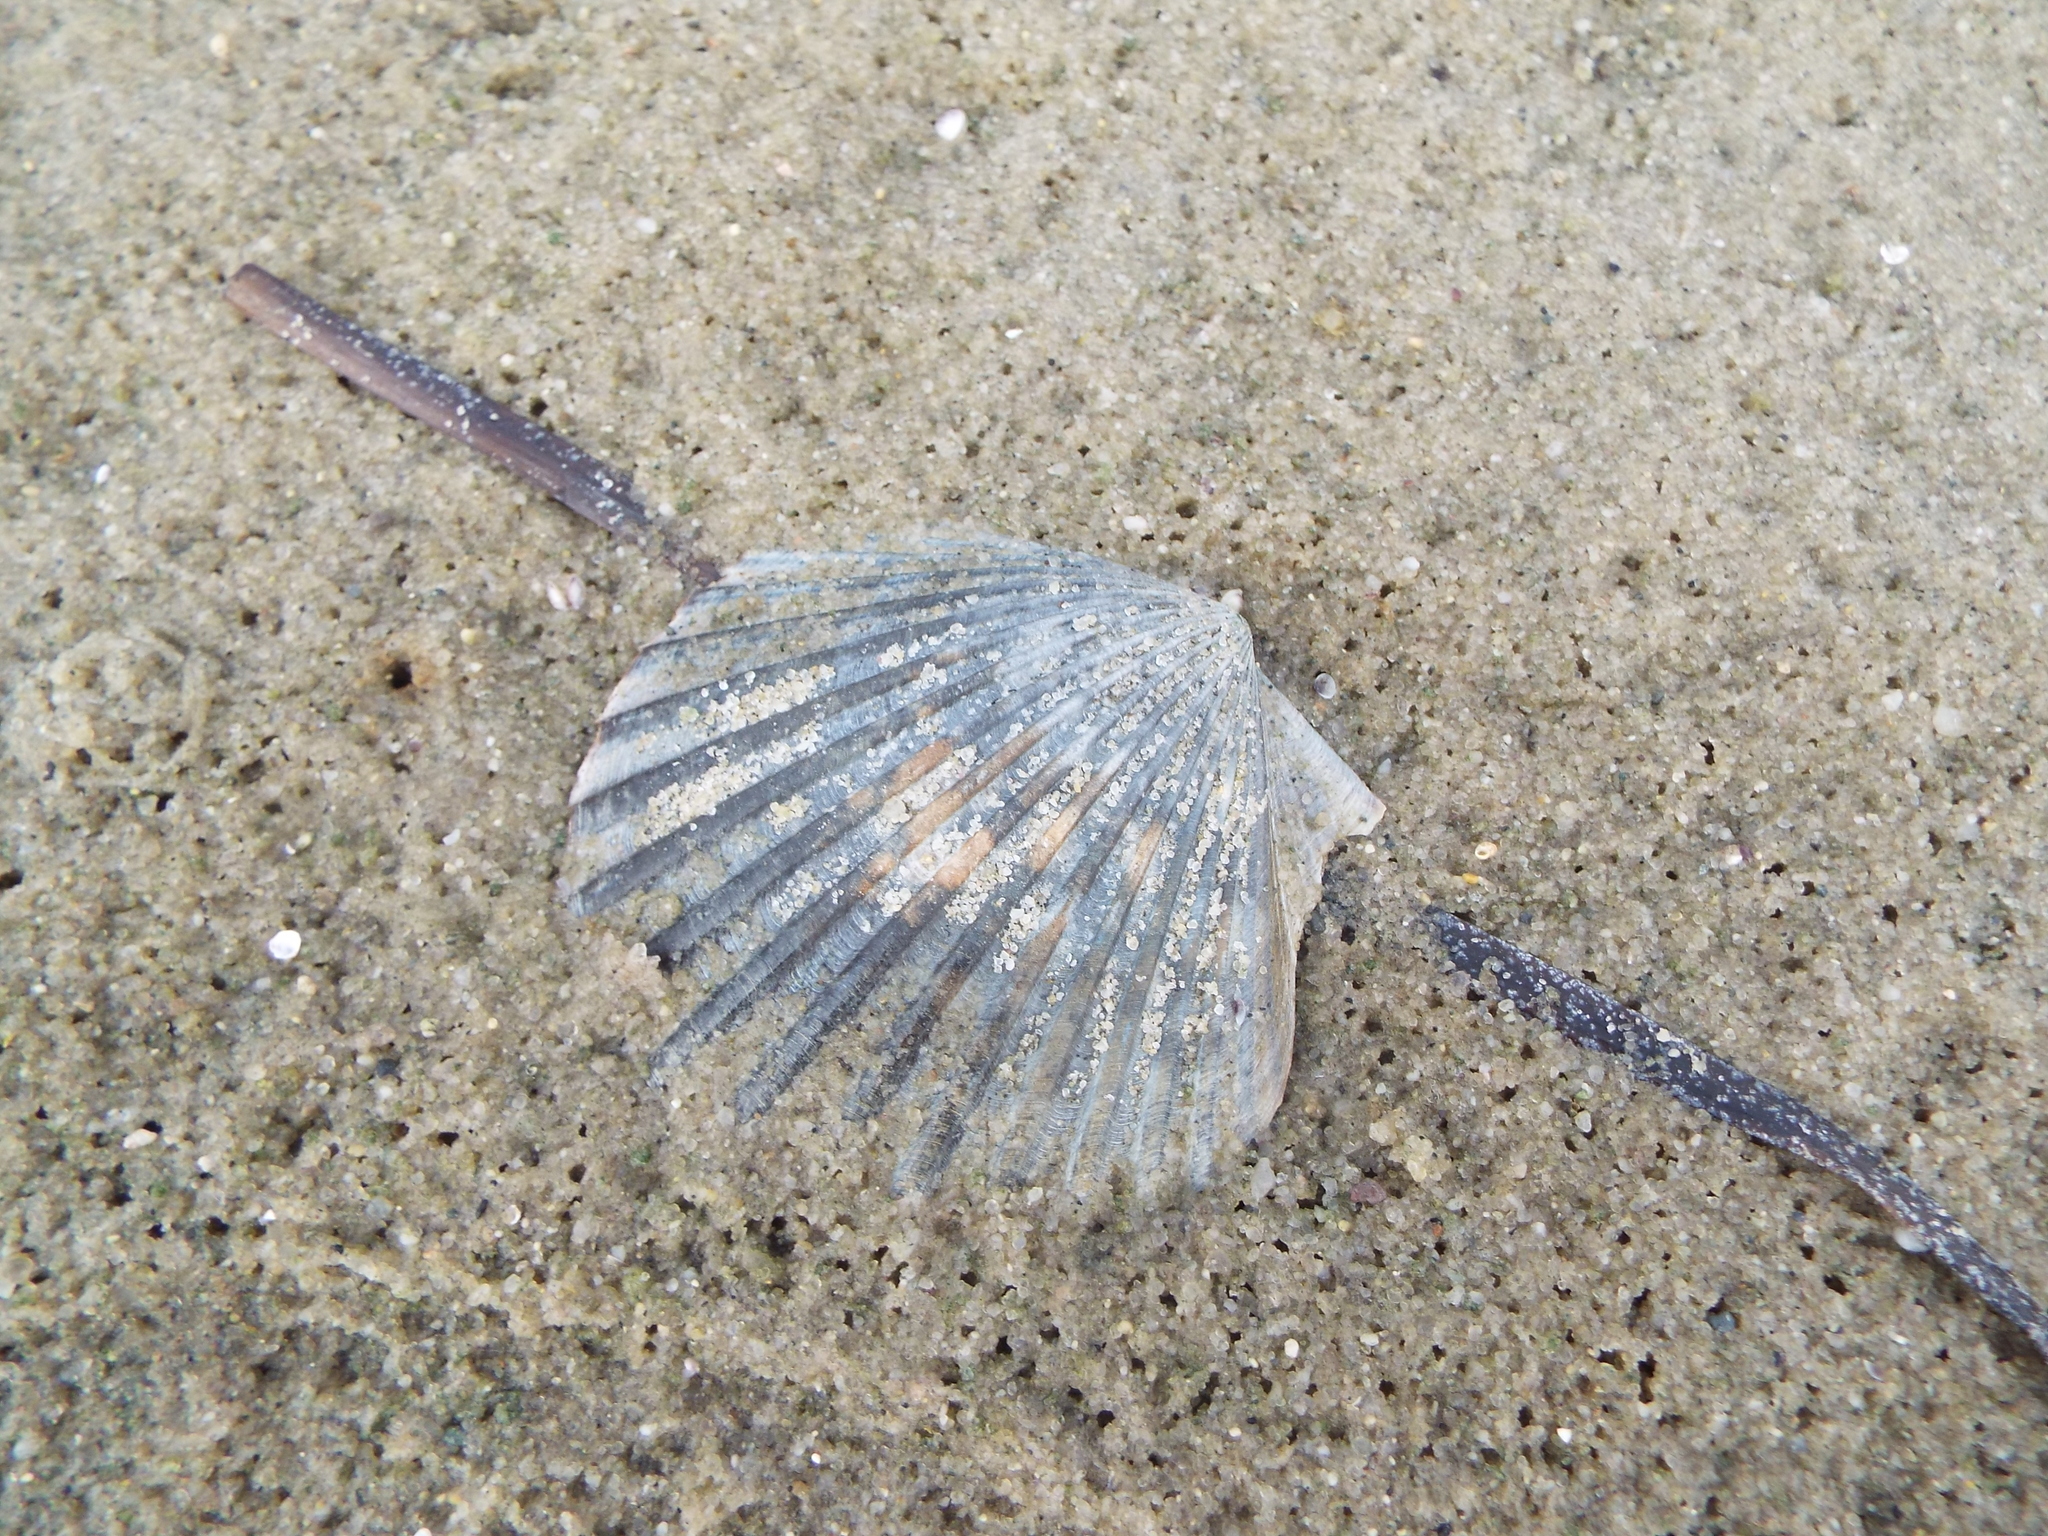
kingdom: Animalia
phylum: Mollusca
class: Bivalvia
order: Pectinida
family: Pectinidae
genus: Argopecten
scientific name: Argopecten irradians
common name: Atlantic bay scallop
